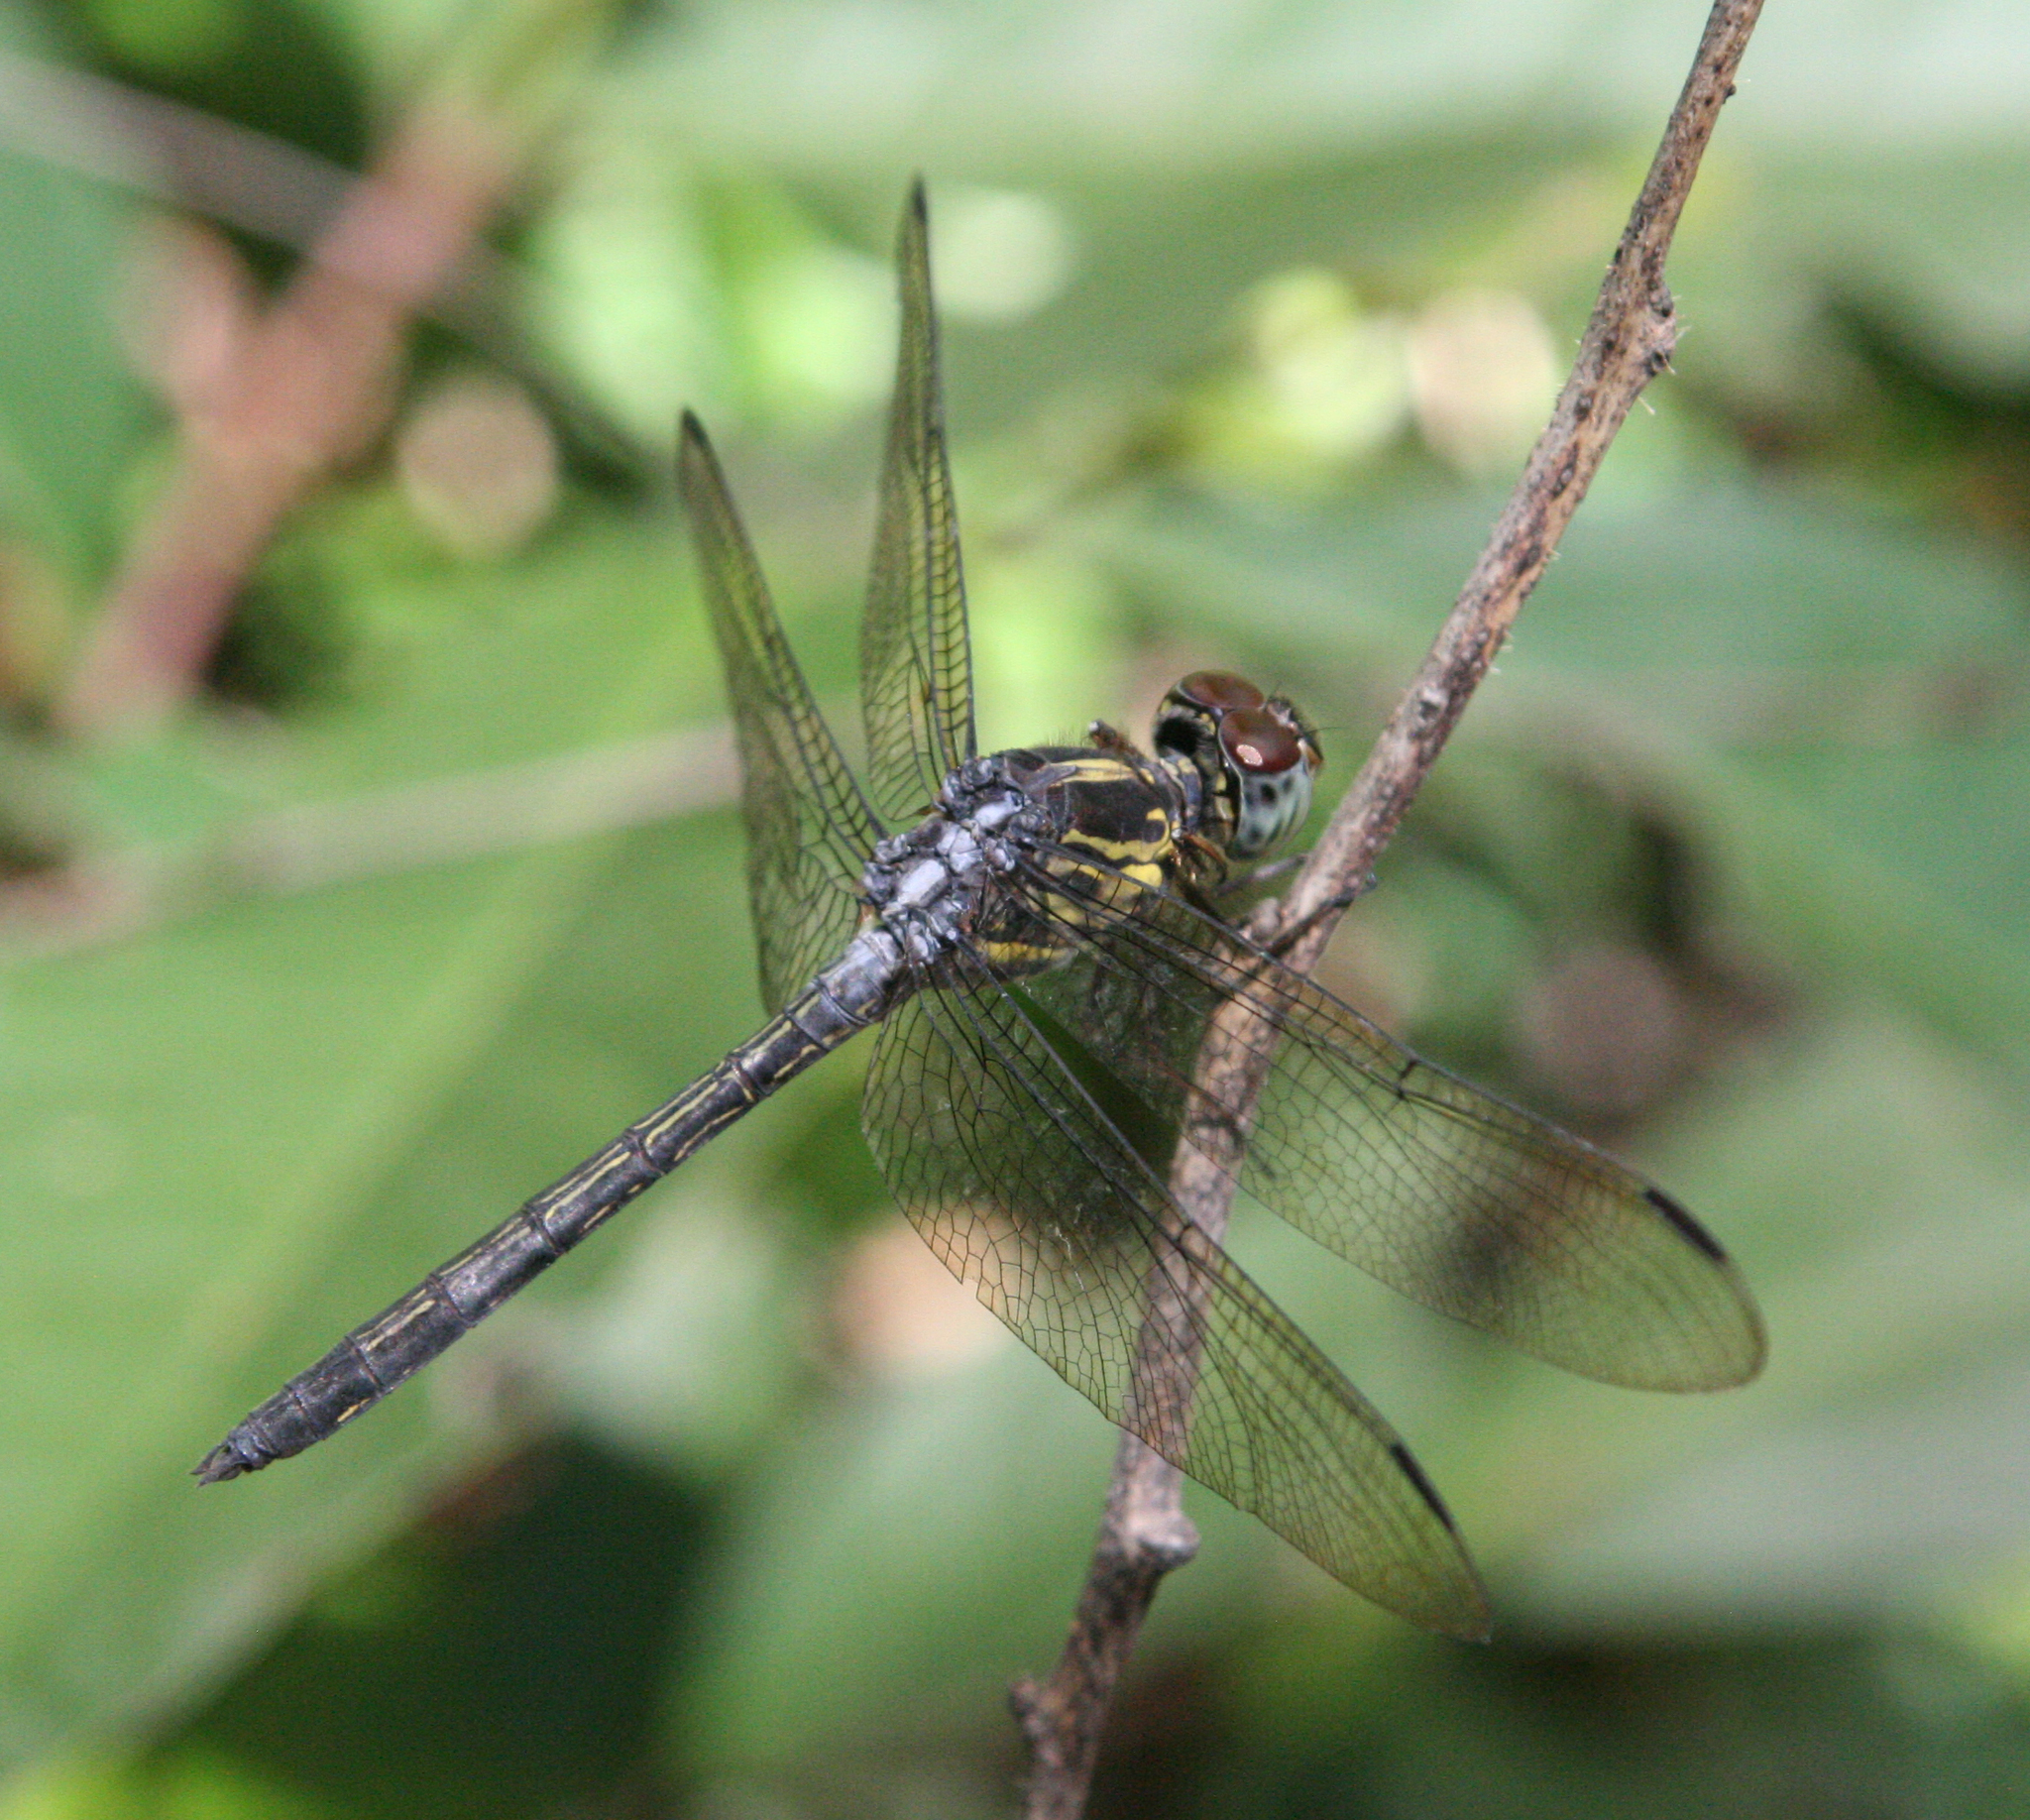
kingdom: Animalia
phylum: Arthropoda
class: Insecta
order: Odonata
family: Libellulidae
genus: Cratilla
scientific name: Cratilla lineata
